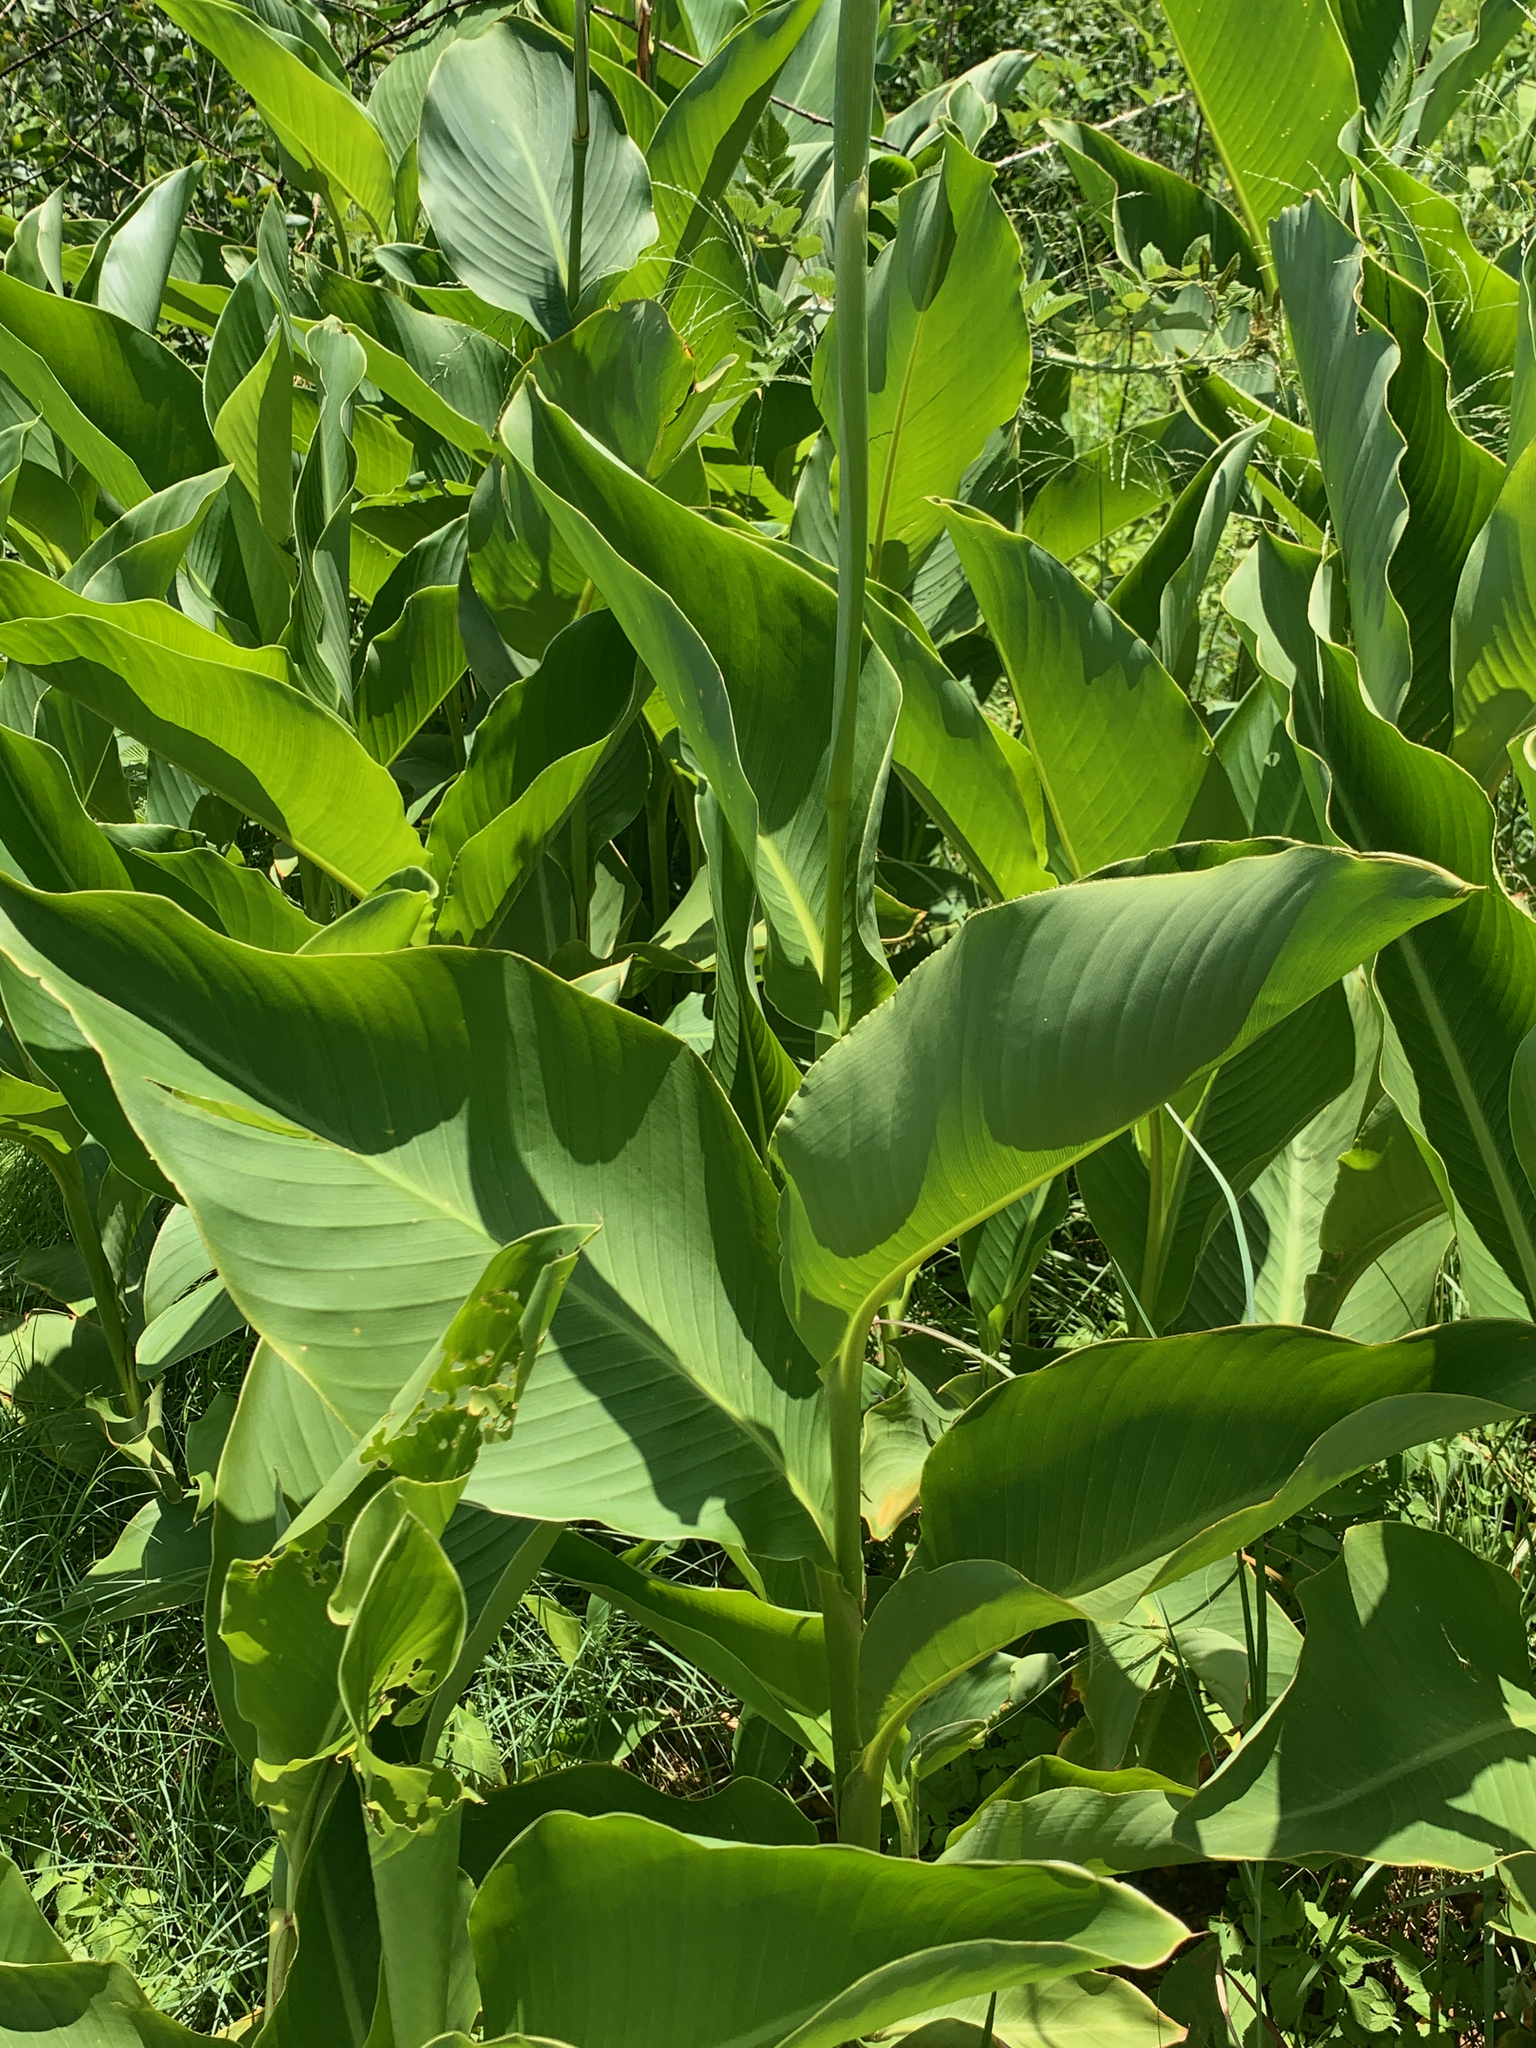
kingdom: Plantae
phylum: Tracheophyta
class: Liliopsida
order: Zingiberales
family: Cannaceae
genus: Canna
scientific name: Canna indica
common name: Indian shot
